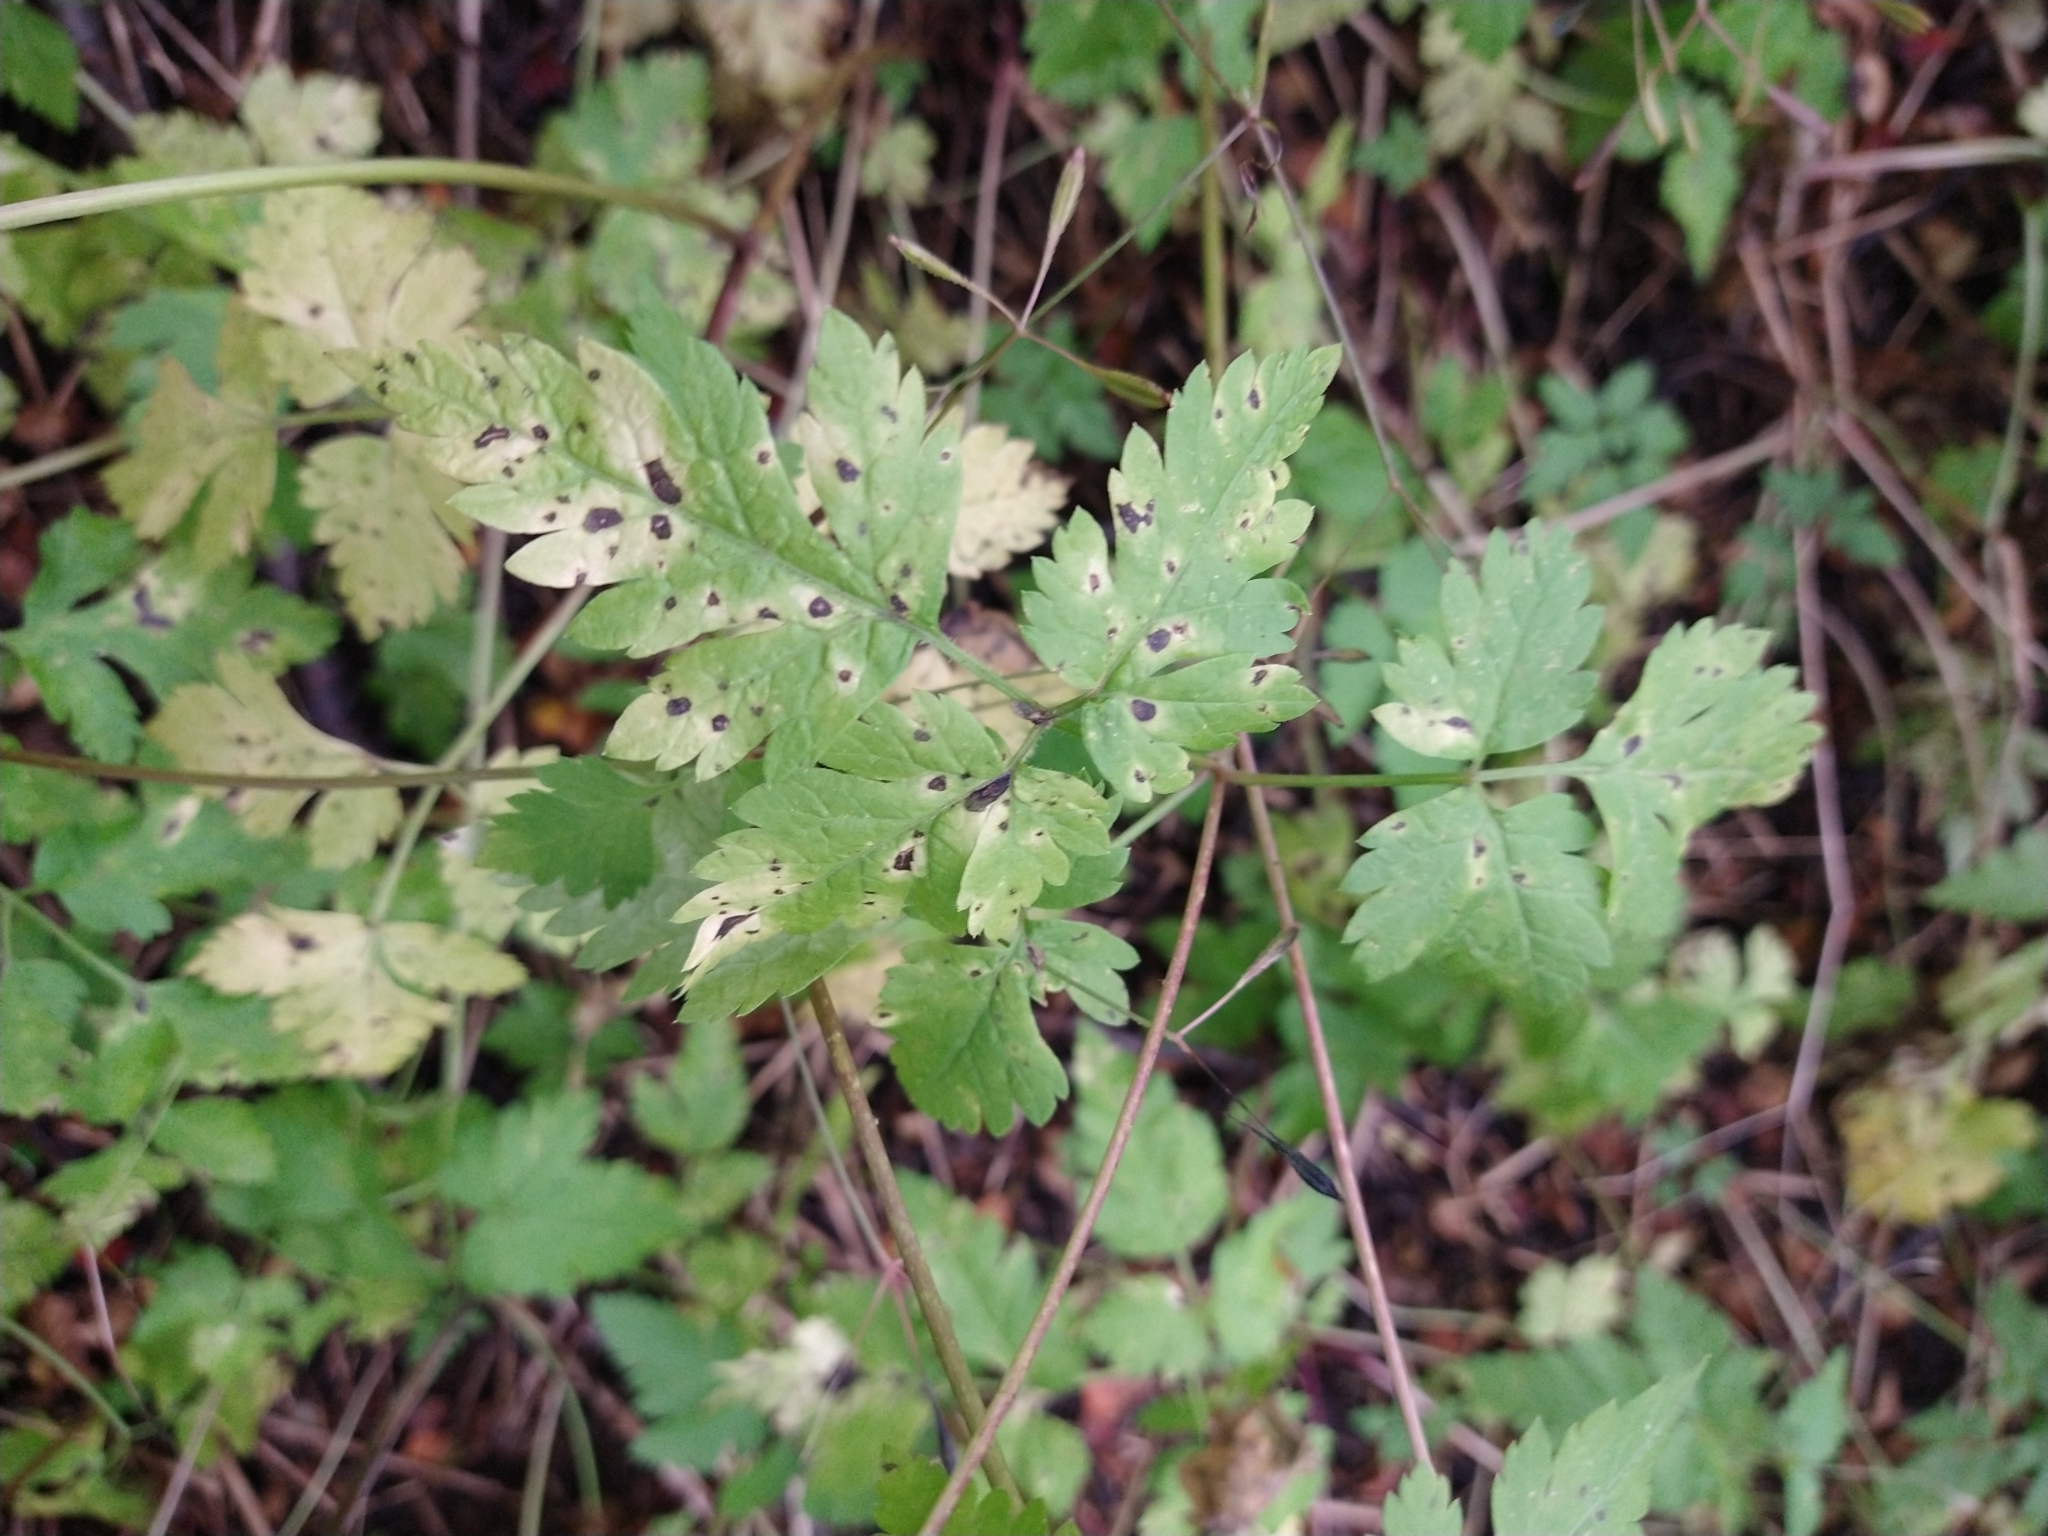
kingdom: Plantae
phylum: Tracheophyta
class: Magnoliopsida
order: Apiales
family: Apiaceae
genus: Osmorhiza
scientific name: Osmorhiza berteroi
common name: Mountain sweet cicely
